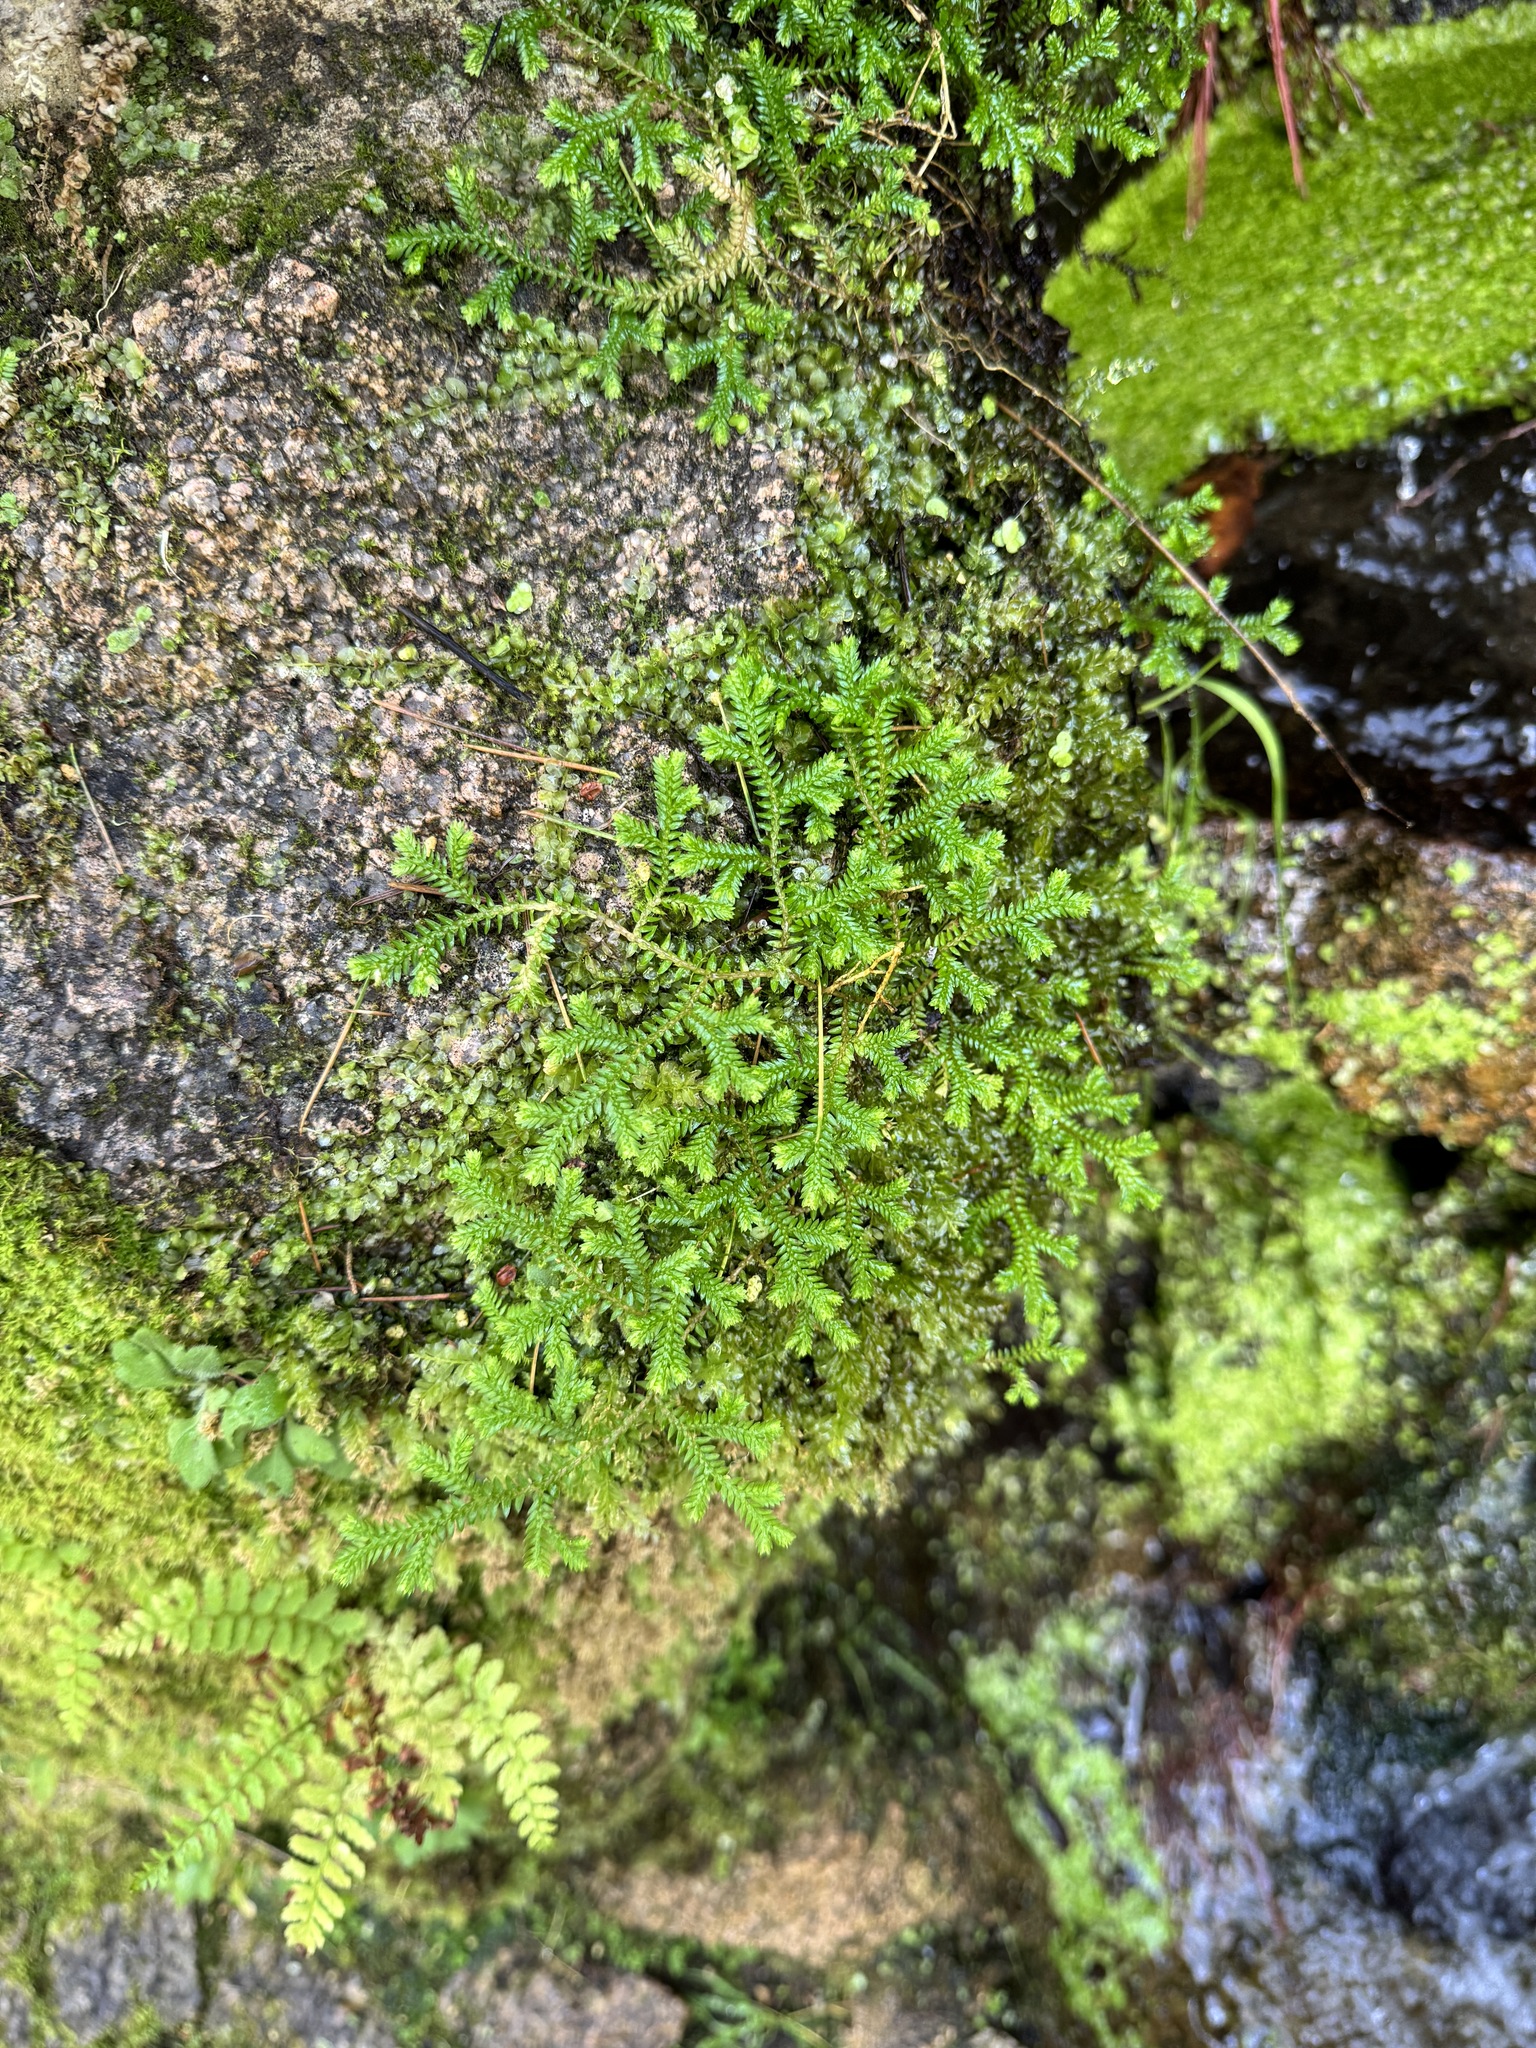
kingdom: Plantae
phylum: Tracheophyta
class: Lycopodiopsida
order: Selaginellales
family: Selaginellaceae
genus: Selaginella
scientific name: Selaginella kraussiana
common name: Krauss' spikemoss
